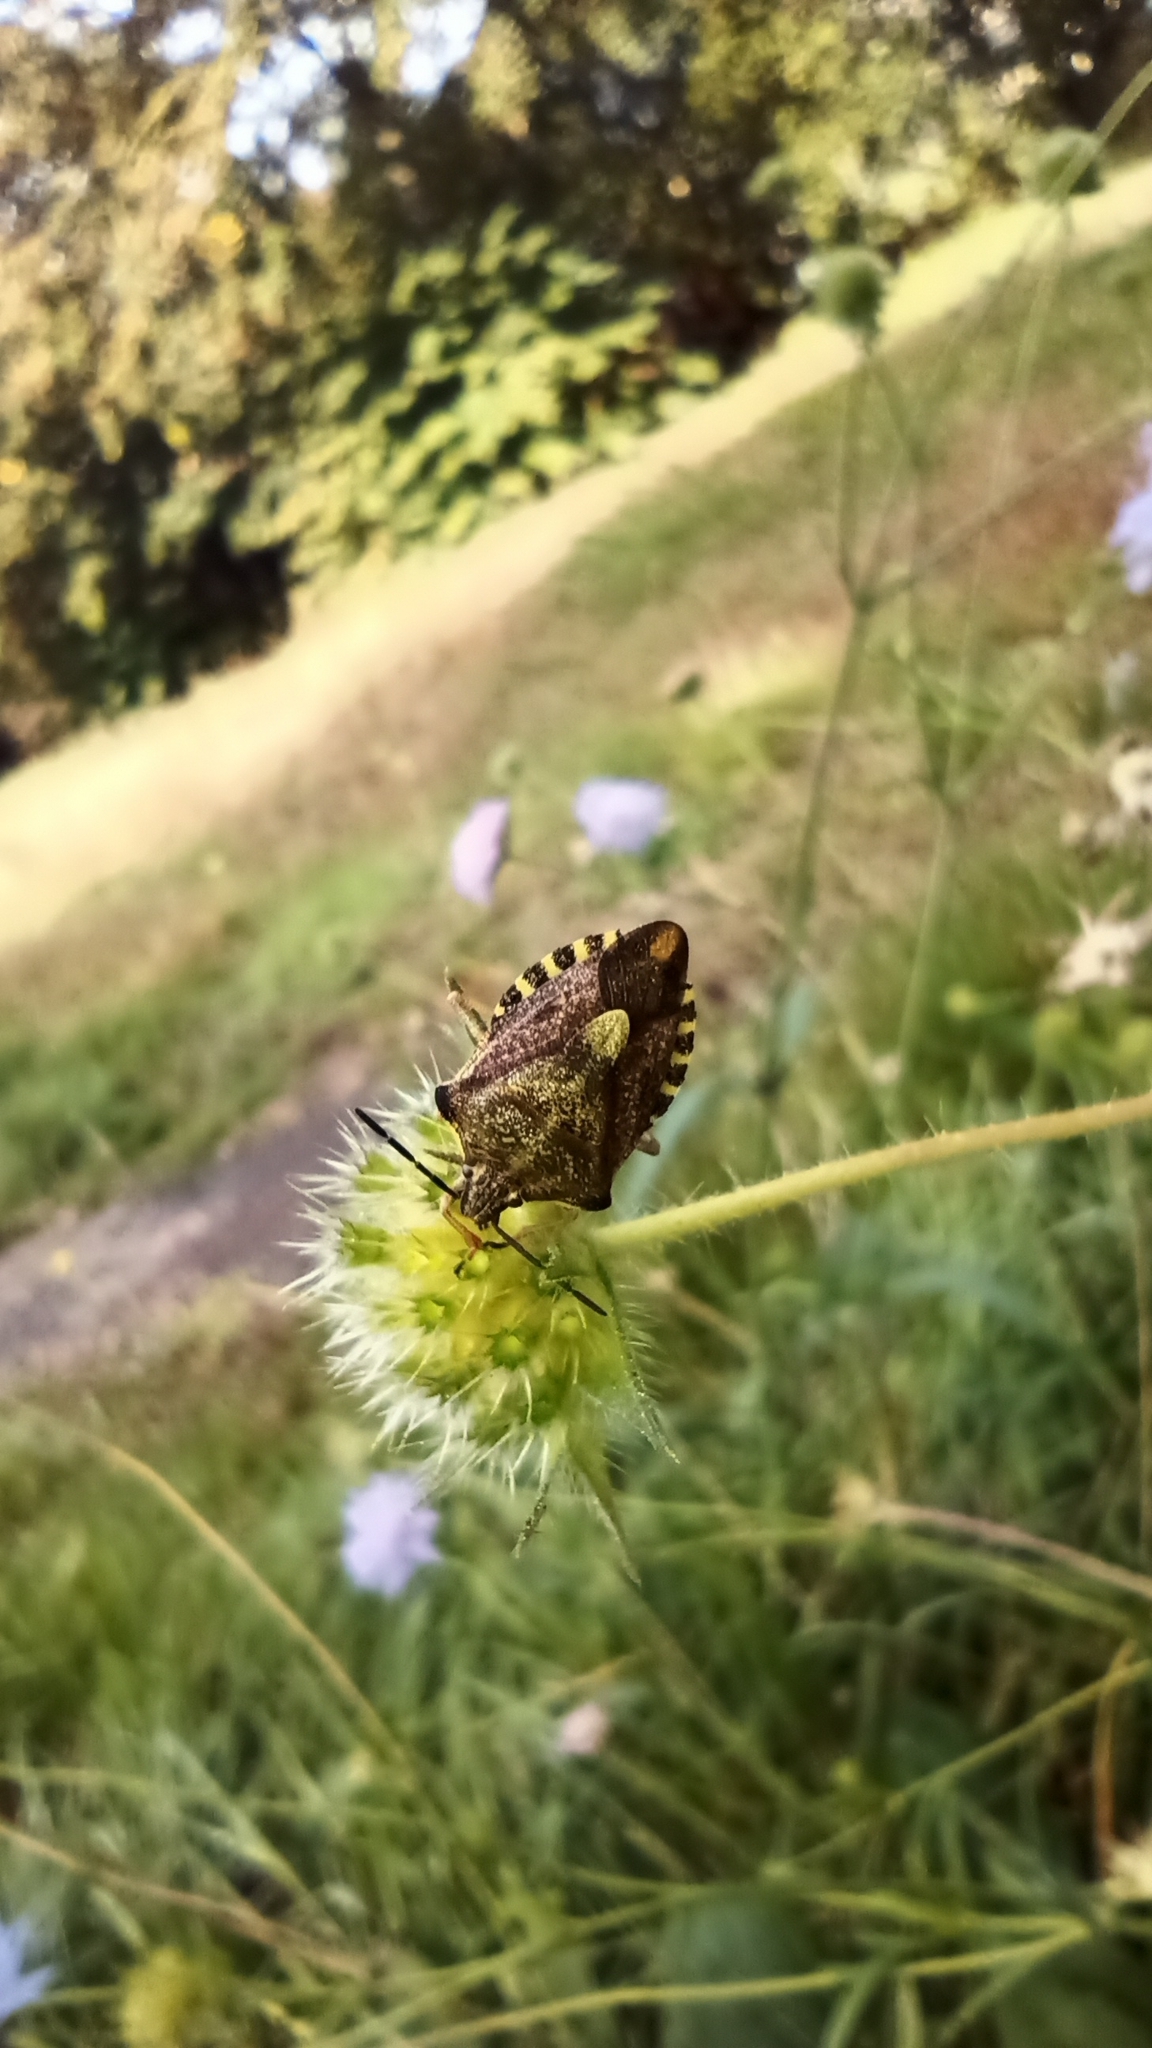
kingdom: Animalia
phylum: Arthropoda
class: Insecta
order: Hemiptera
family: Pentatomidae
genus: Carpocoris
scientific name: Carpocoris purpureipennis
